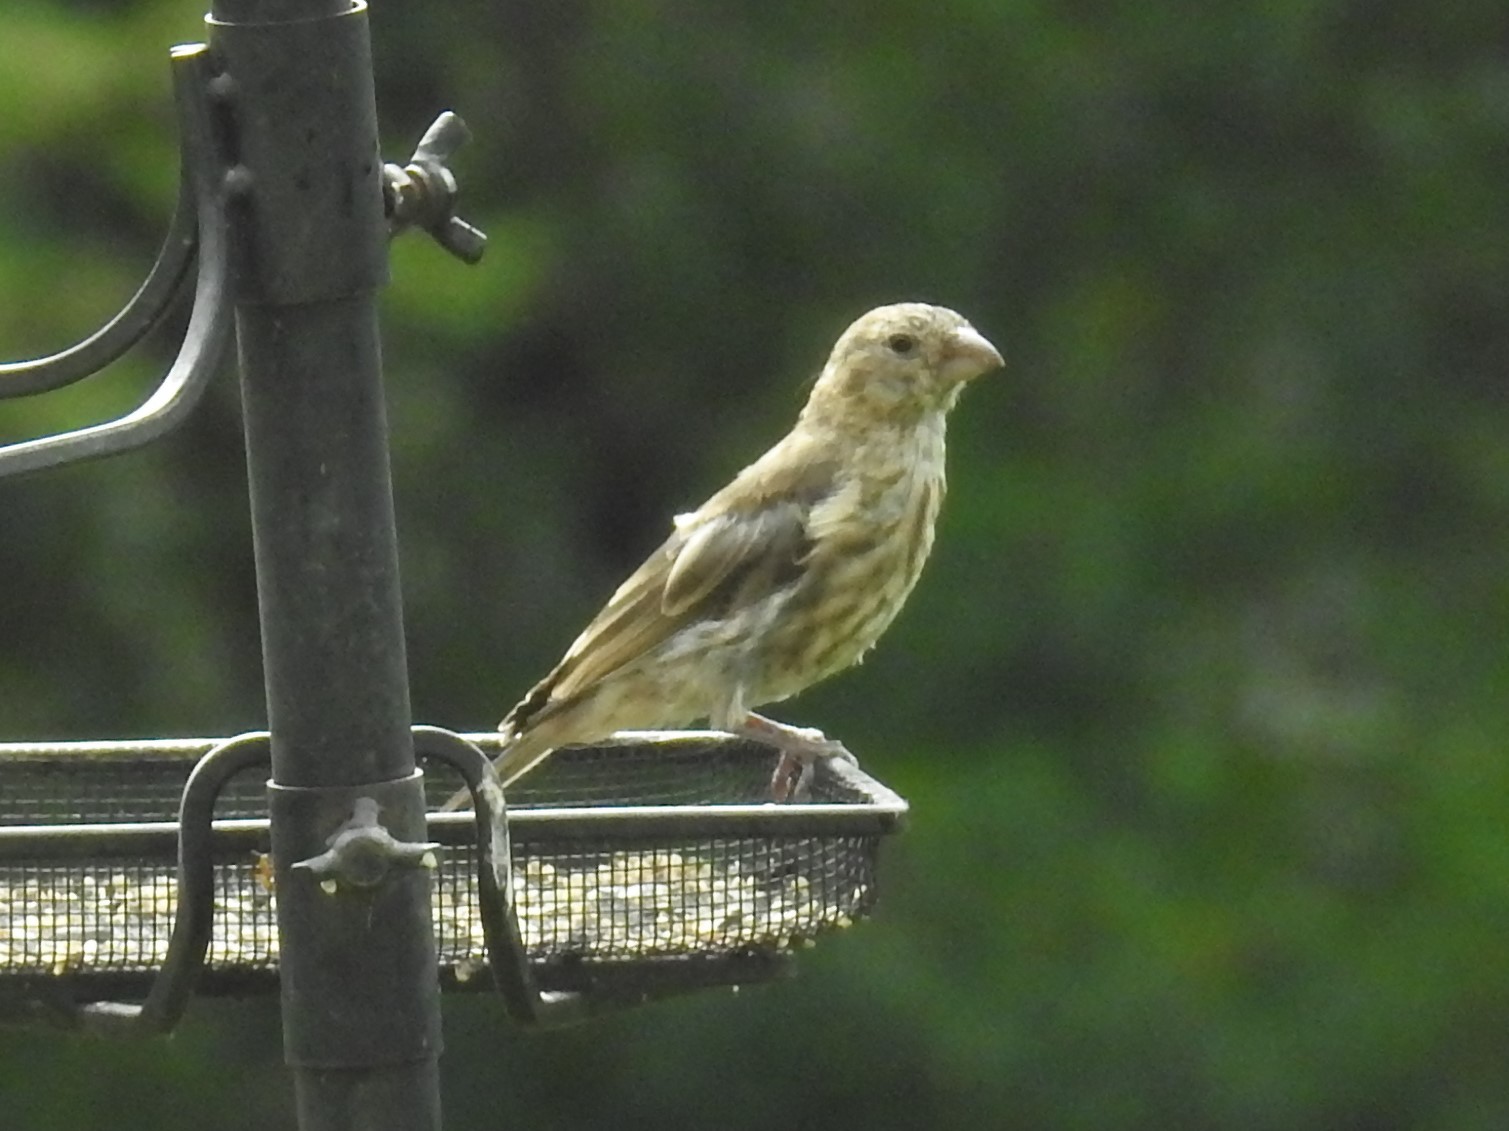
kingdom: Animalia
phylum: Chordata
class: Aves
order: Passeriformes
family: Fringillidae
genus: Haemorhous
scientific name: Haemorhous mexicanus
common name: House finch
